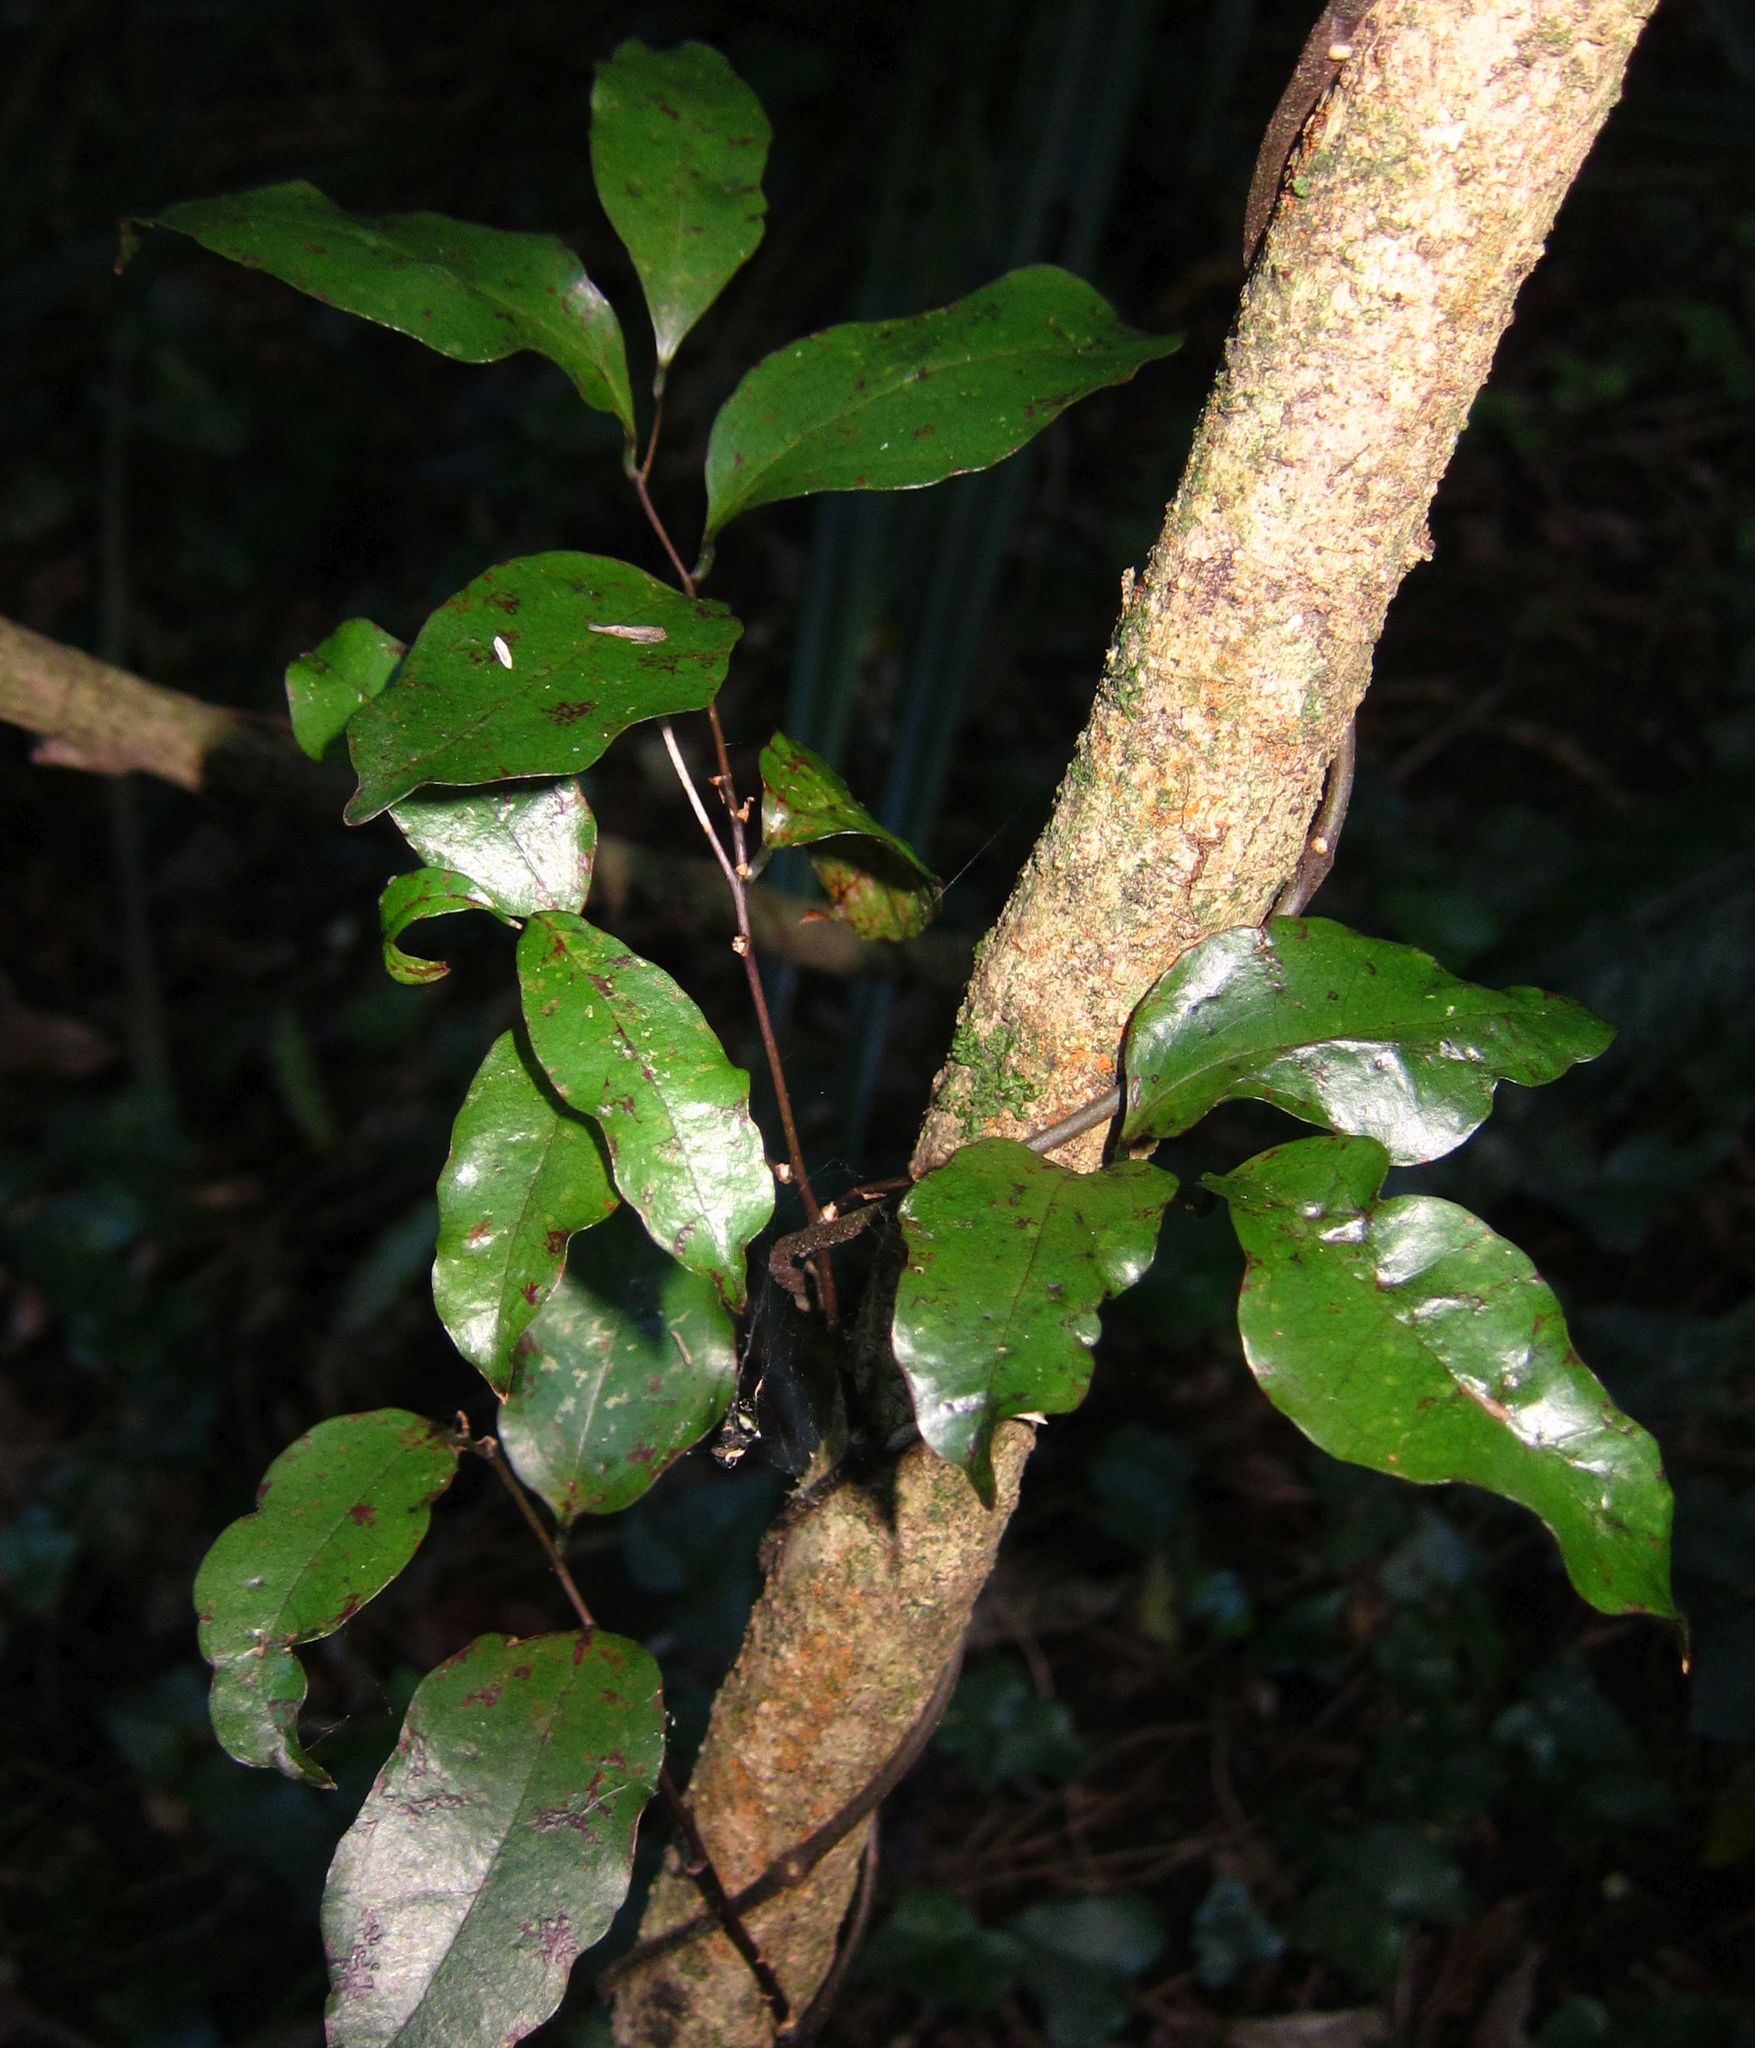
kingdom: Plantae
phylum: Tracheophyta
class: Liliopsida
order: Liliales
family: Ripogonaceae
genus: Ripogonum
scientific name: Ripogonum scandens
